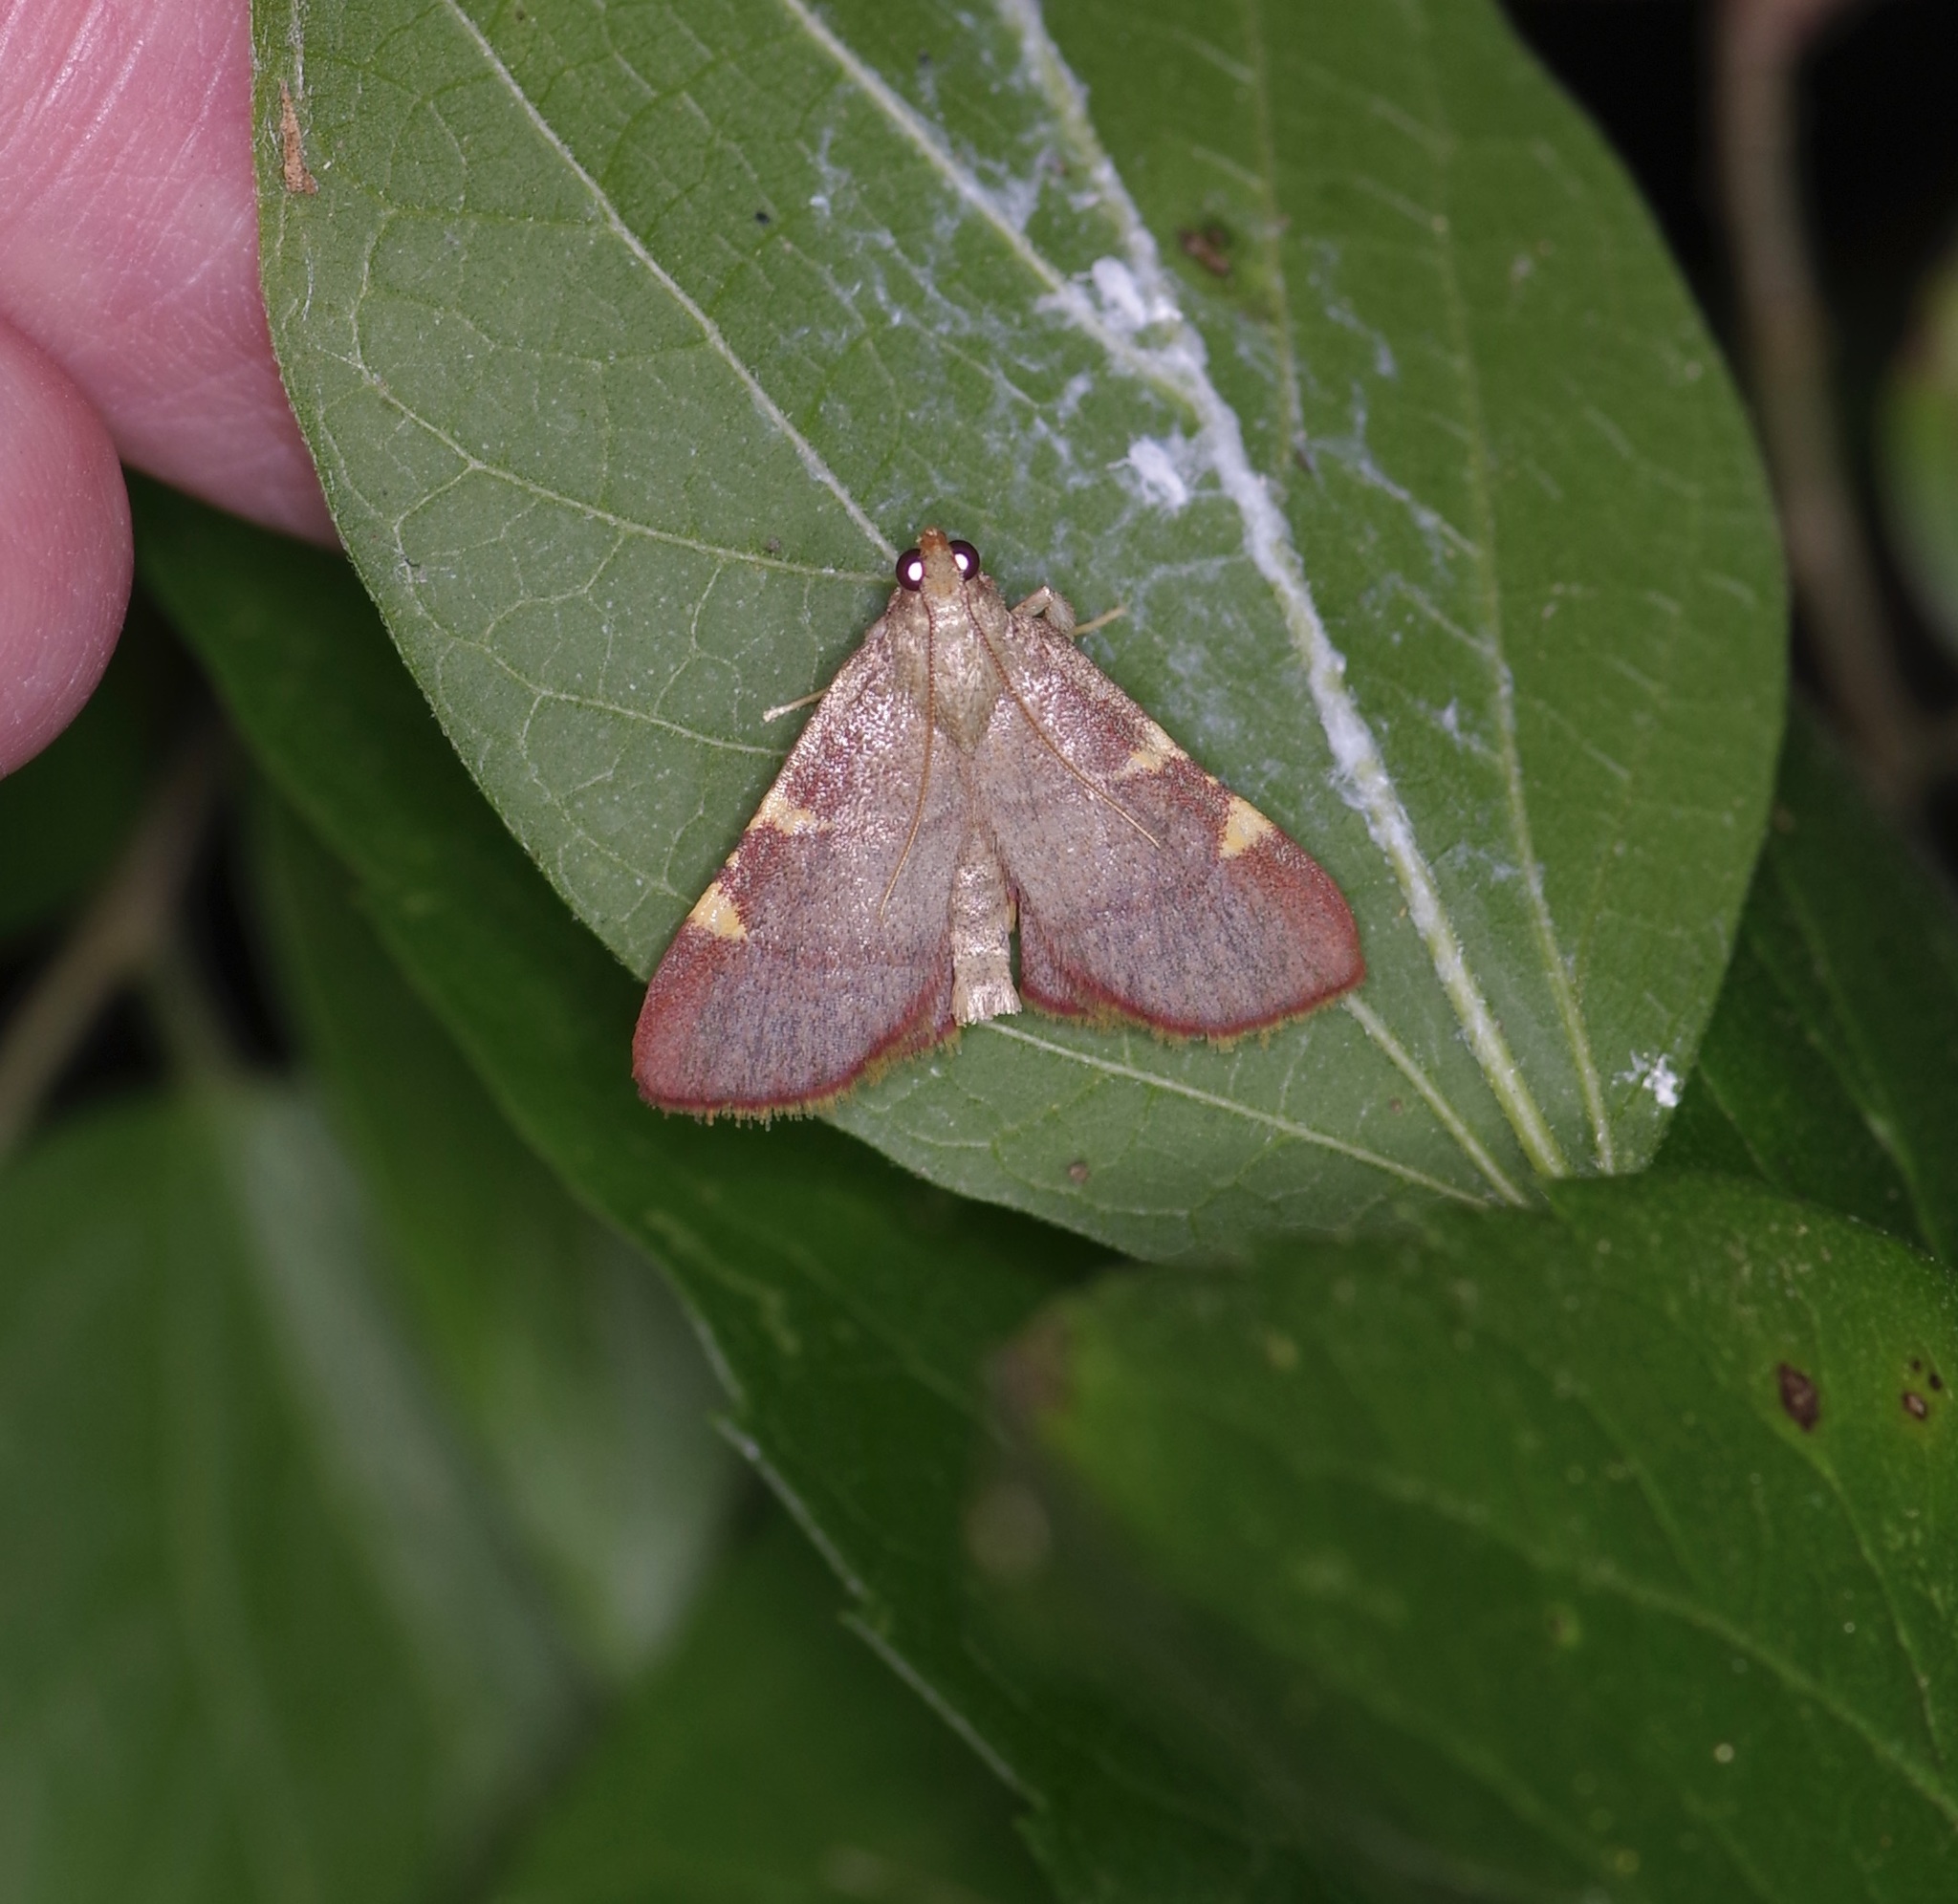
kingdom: Animalia
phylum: Arthropoda
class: Insecta
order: Lepidoptera
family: Pyralidae
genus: Hypsopygia
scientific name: Hypsopygia olinalis
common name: Yellow-fringed dolichomia moth
